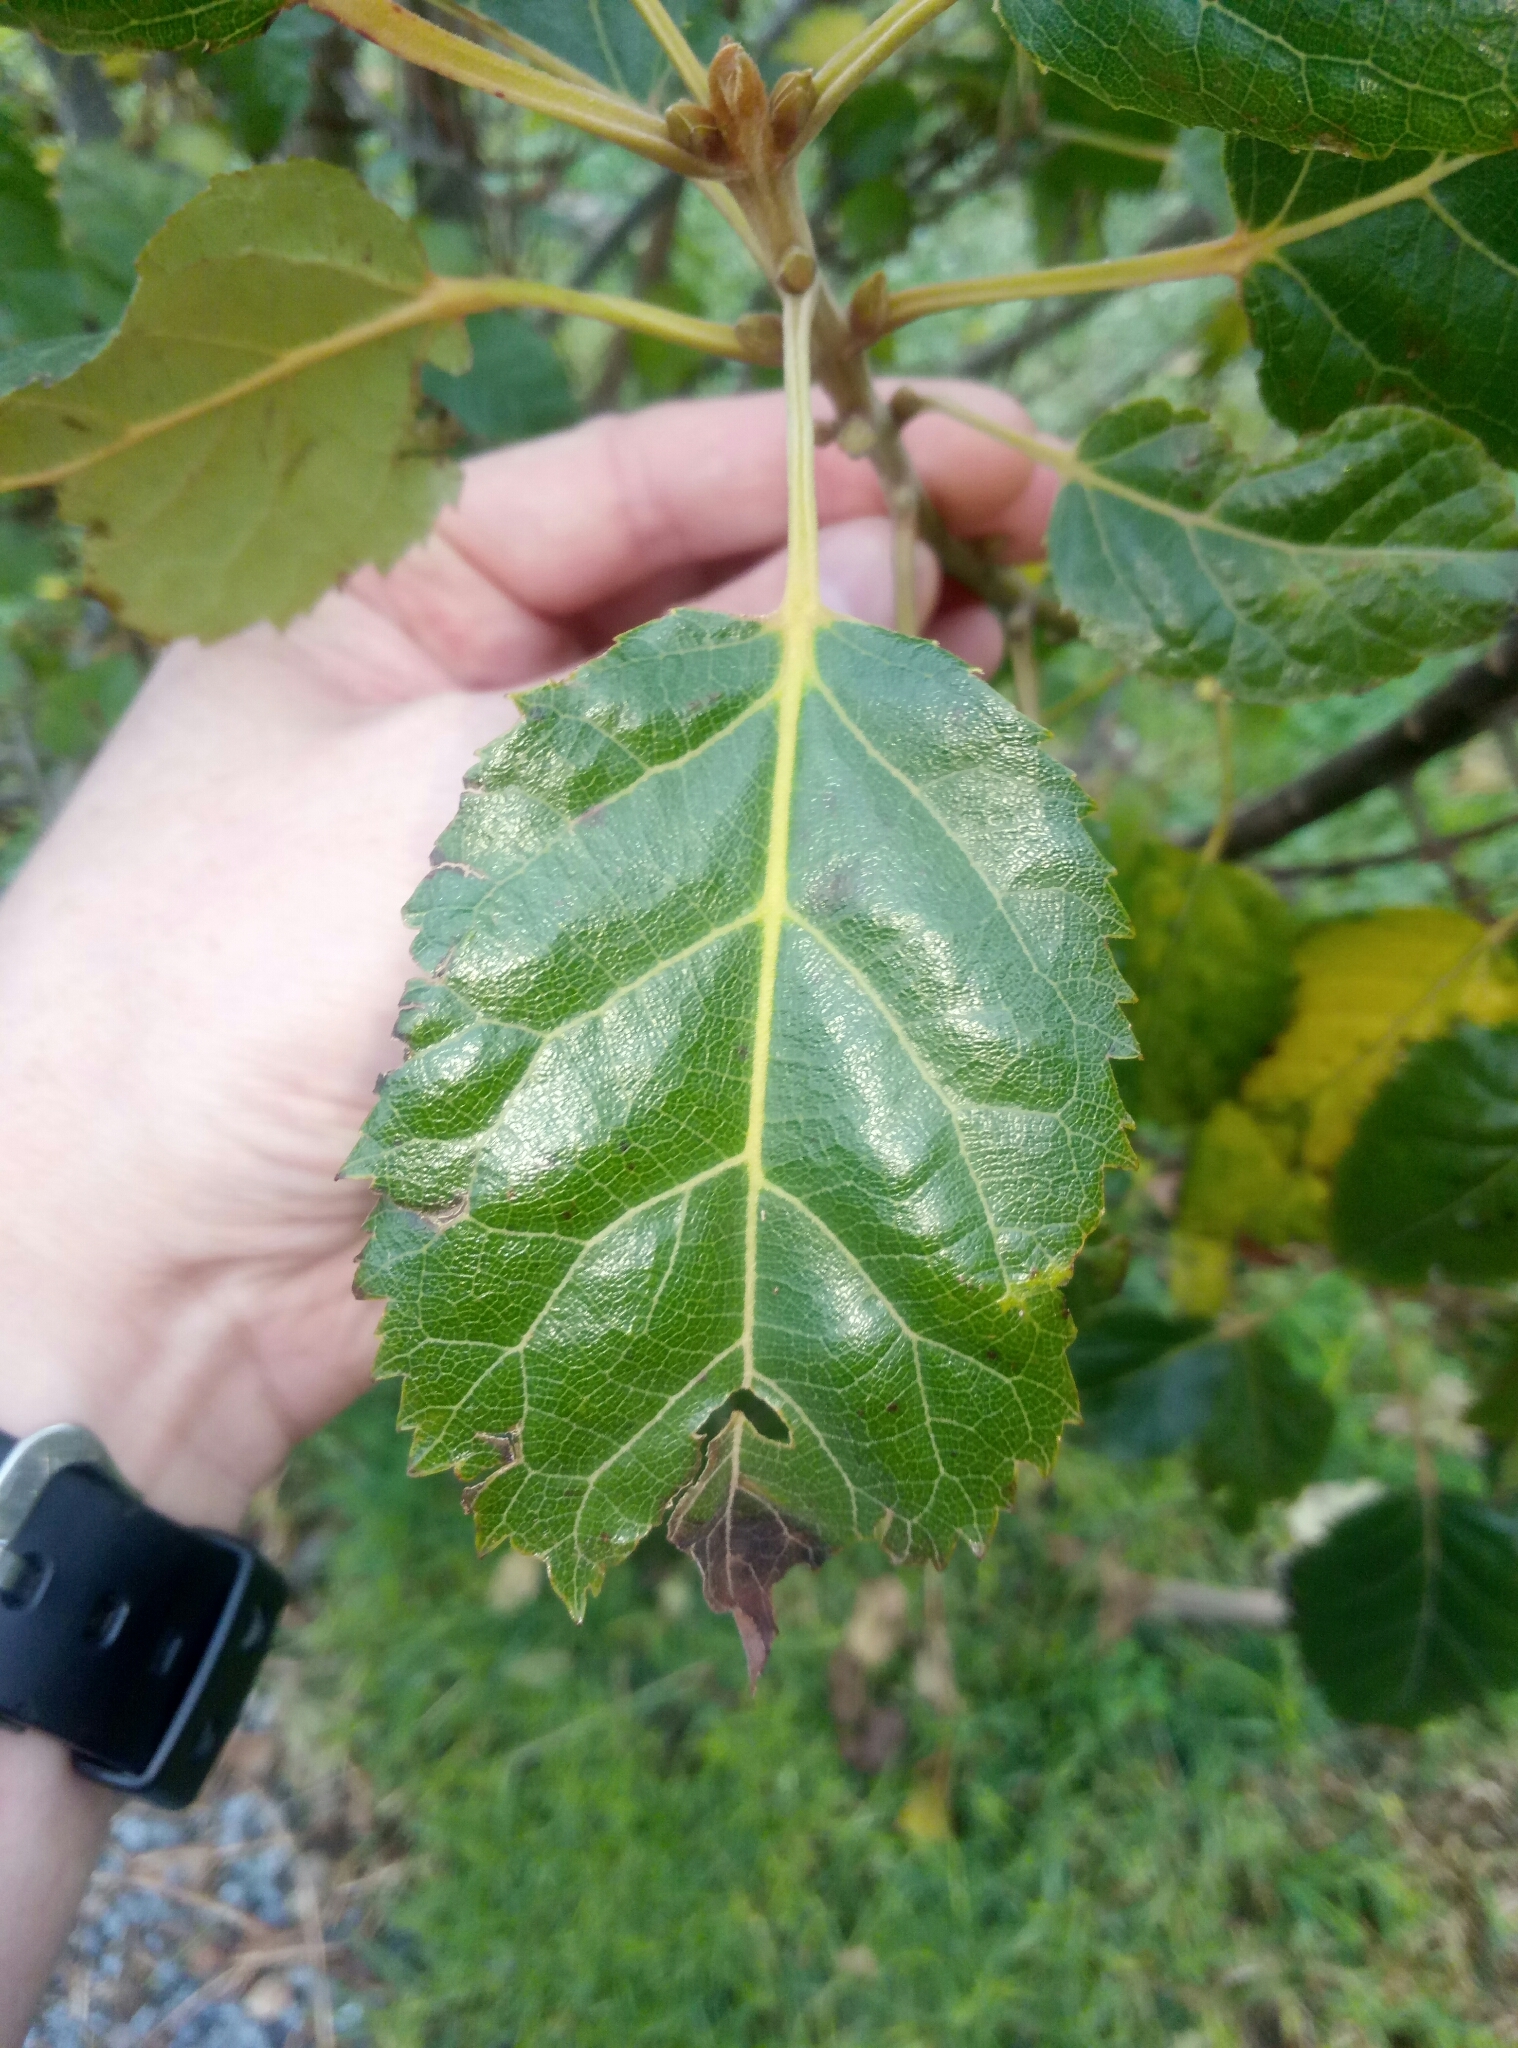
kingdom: Plantae
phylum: Tracheophyta
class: Magnoliopsida
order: Oxalidales
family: Elaeocarpaceae
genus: Aristotelia
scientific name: Aristotelia serrata
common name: New zealand wineberry
